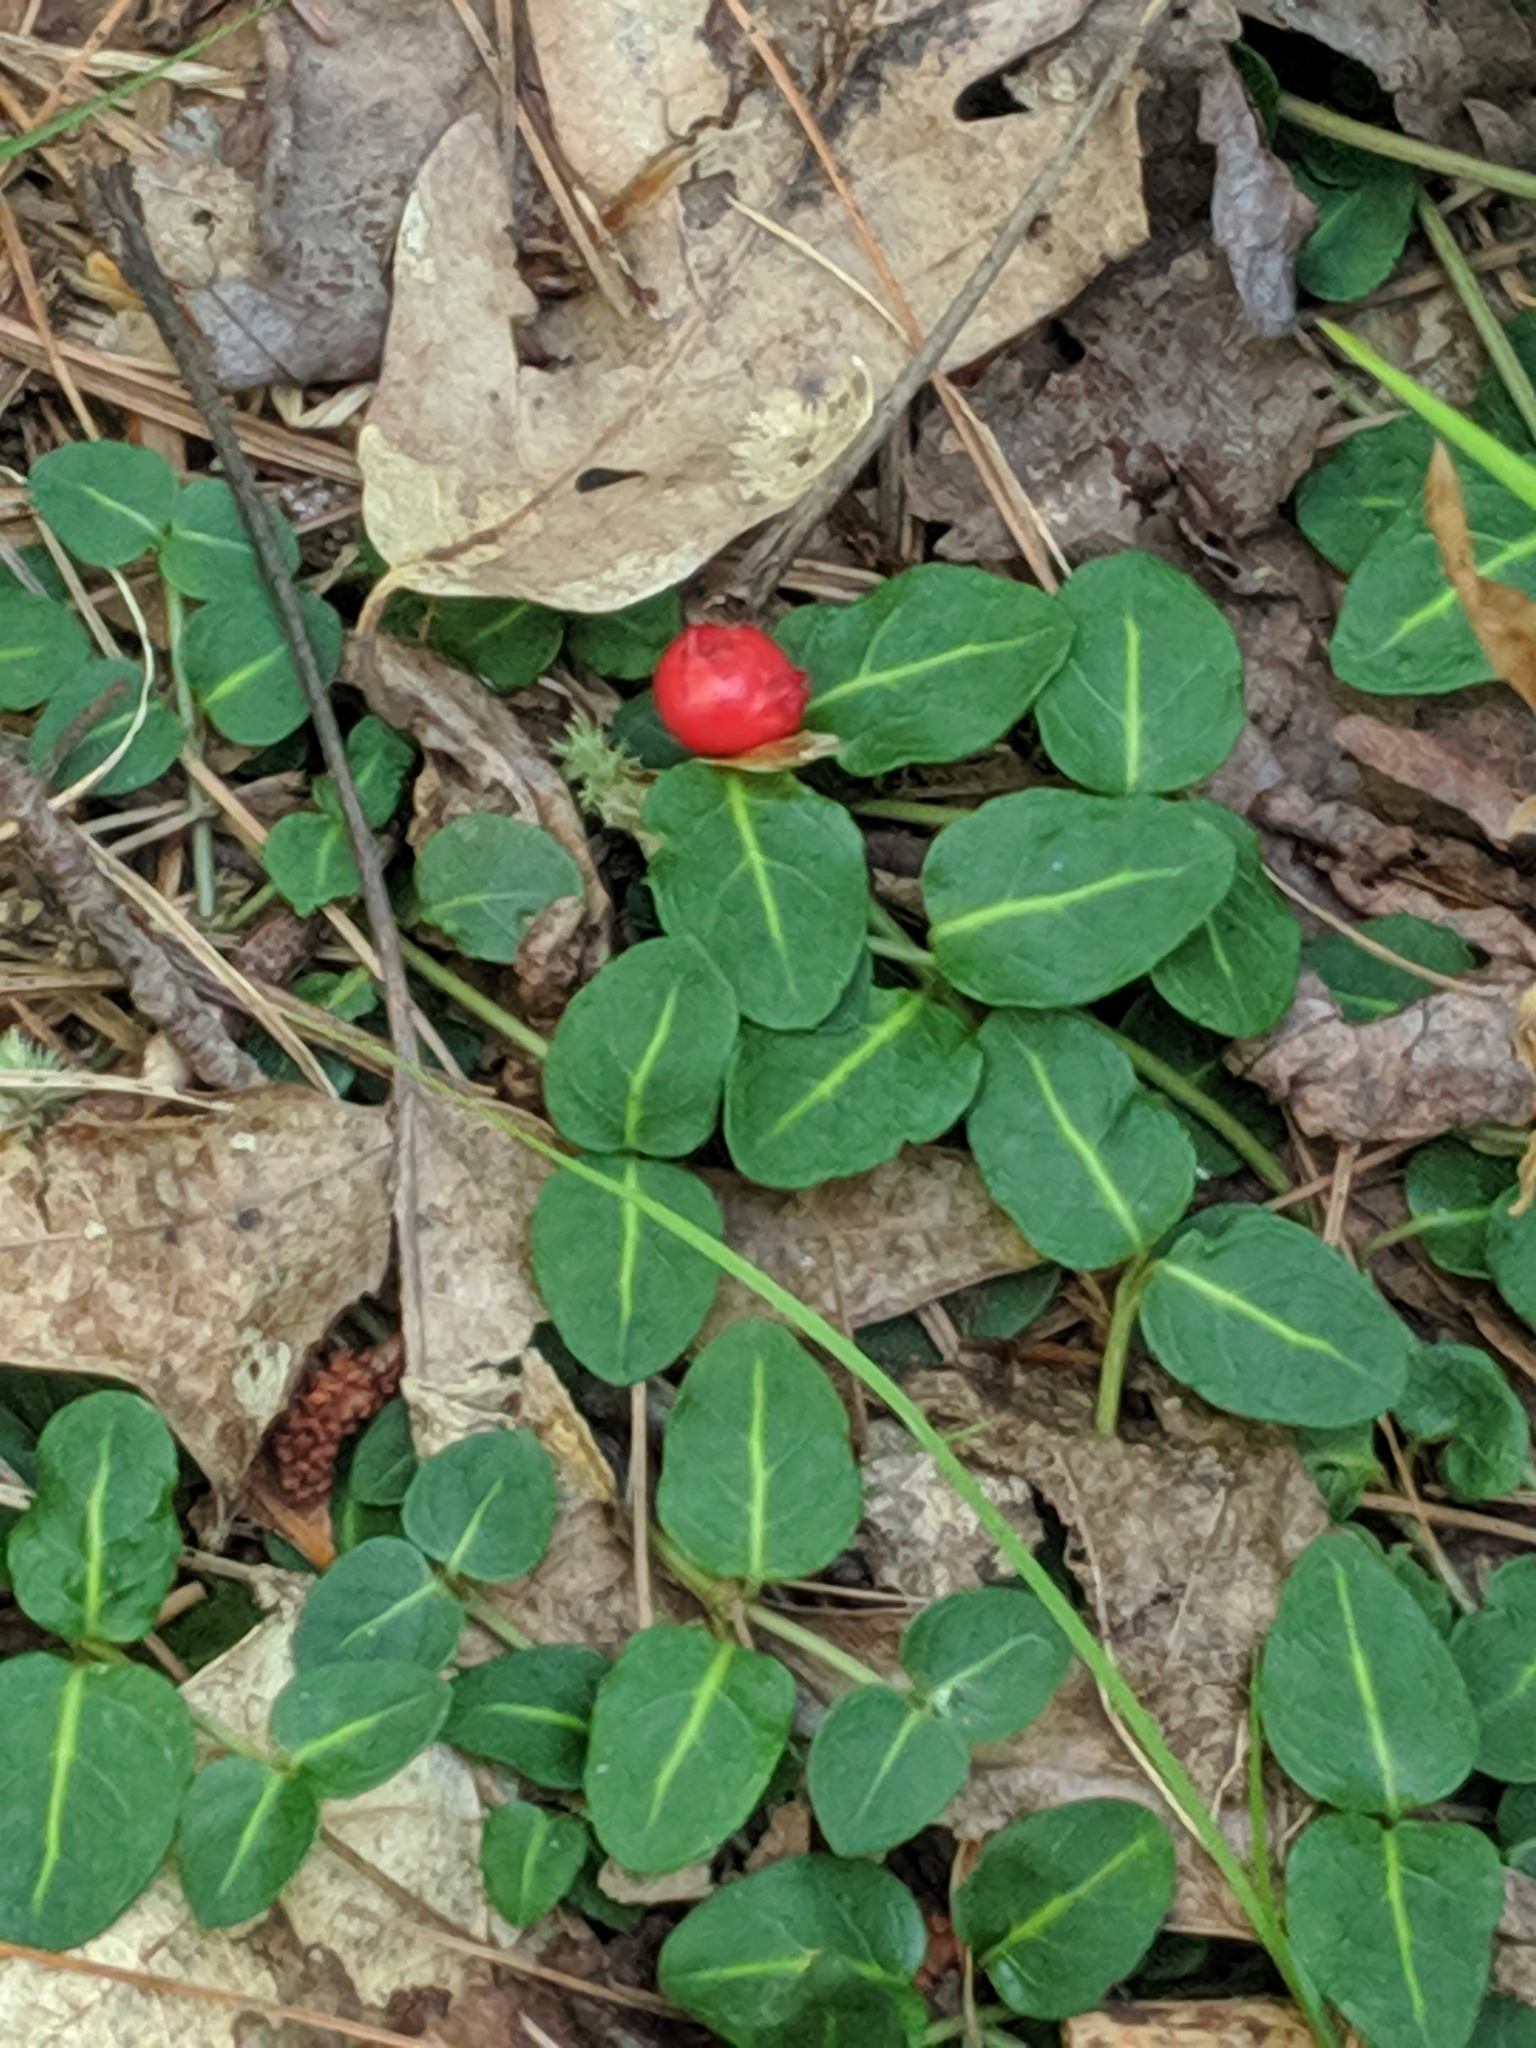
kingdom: Plantae
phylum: Tracheophyta
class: Magnoliopsida
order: Gentianales
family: Rubiaceae
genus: Mitchella
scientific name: Mitchella repens
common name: Partridge-berry
